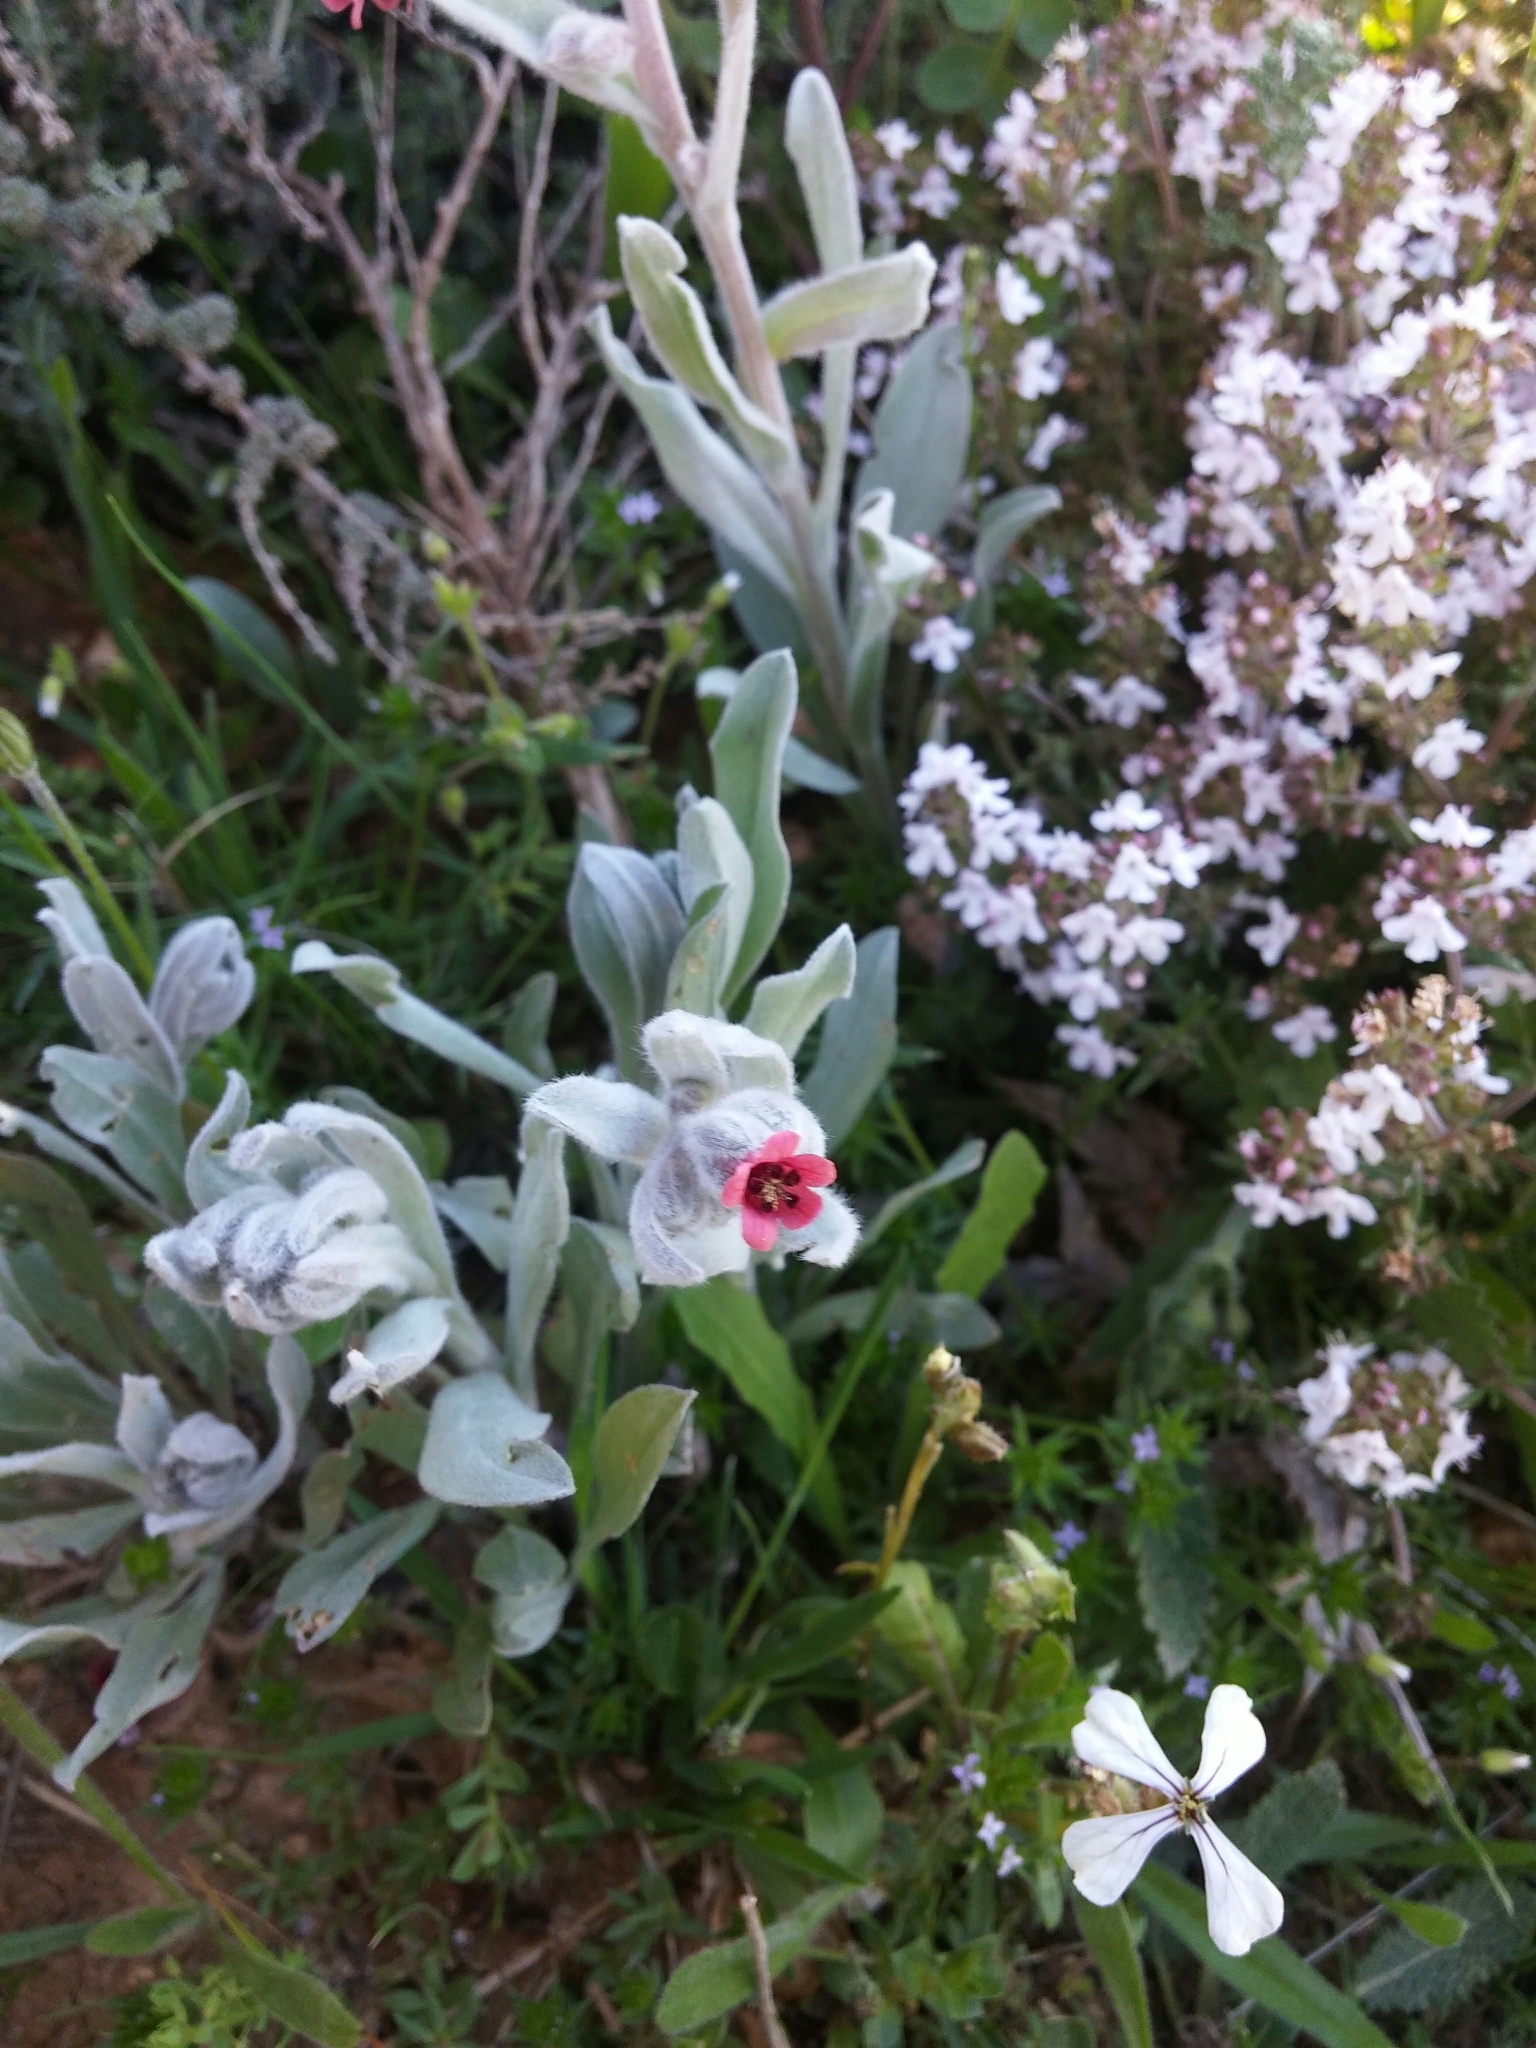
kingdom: Plantae
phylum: Tracheophyta
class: Magnoliopsida
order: Boraginales
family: Boraginaceae
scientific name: Boraginaceae
